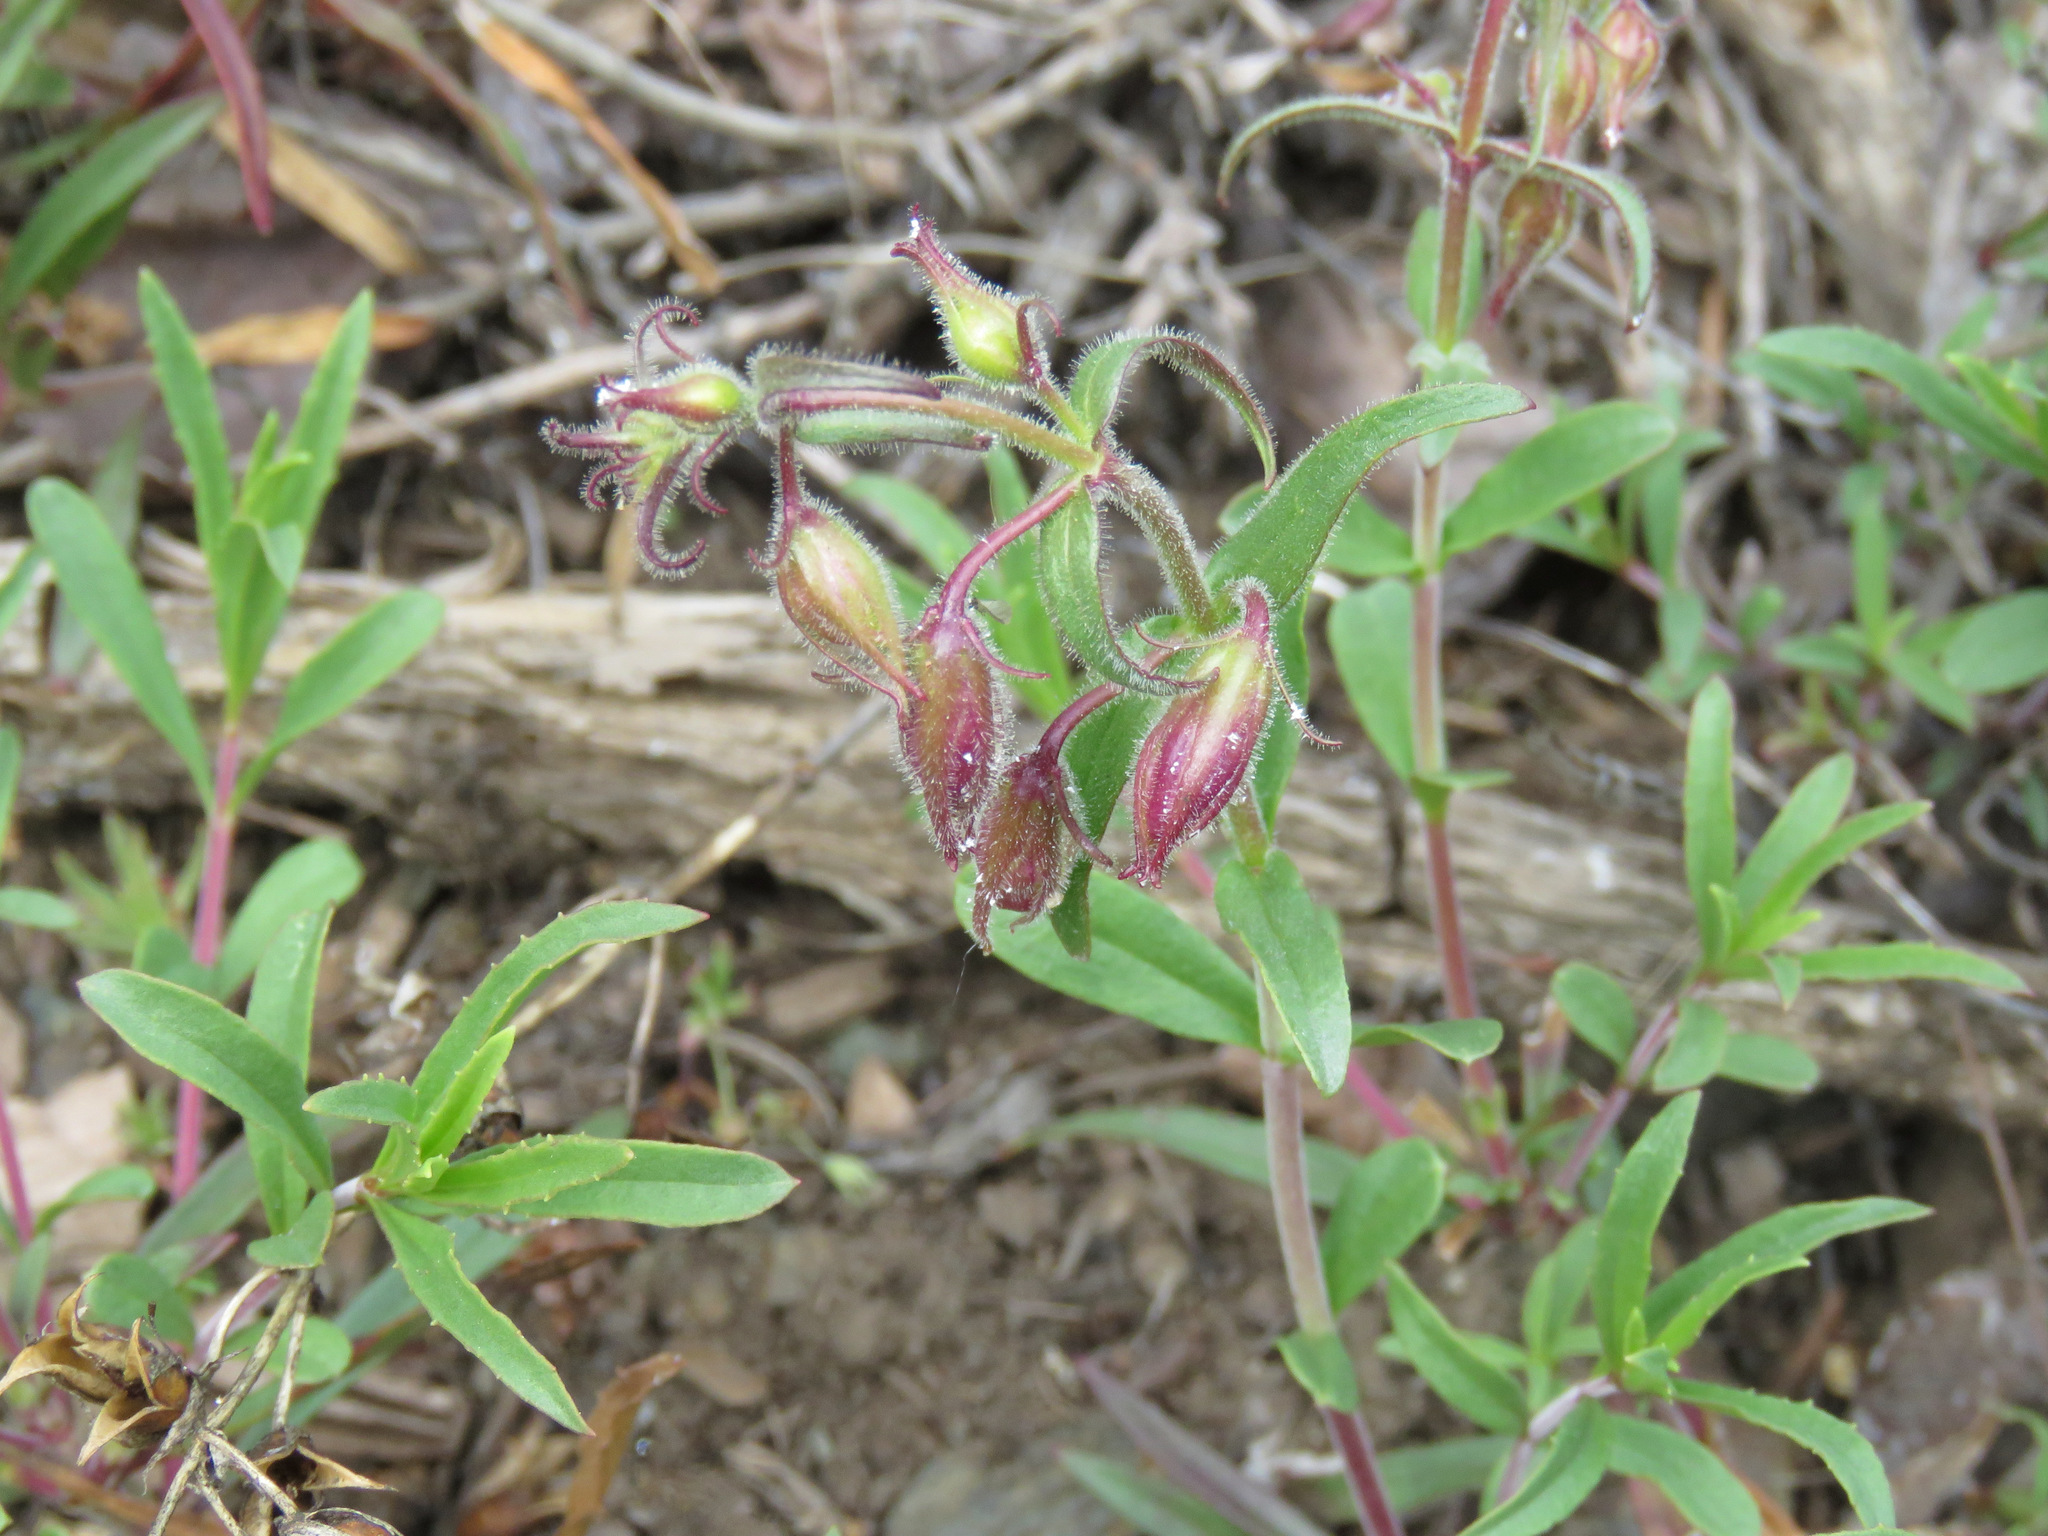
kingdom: Plantae
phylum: Tracheophyta
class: Magnoliopsida
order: Lamiales
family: Plantaginaceae
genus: Penstemon
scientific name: Penstemon fruticosus
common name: Bush penstemon
